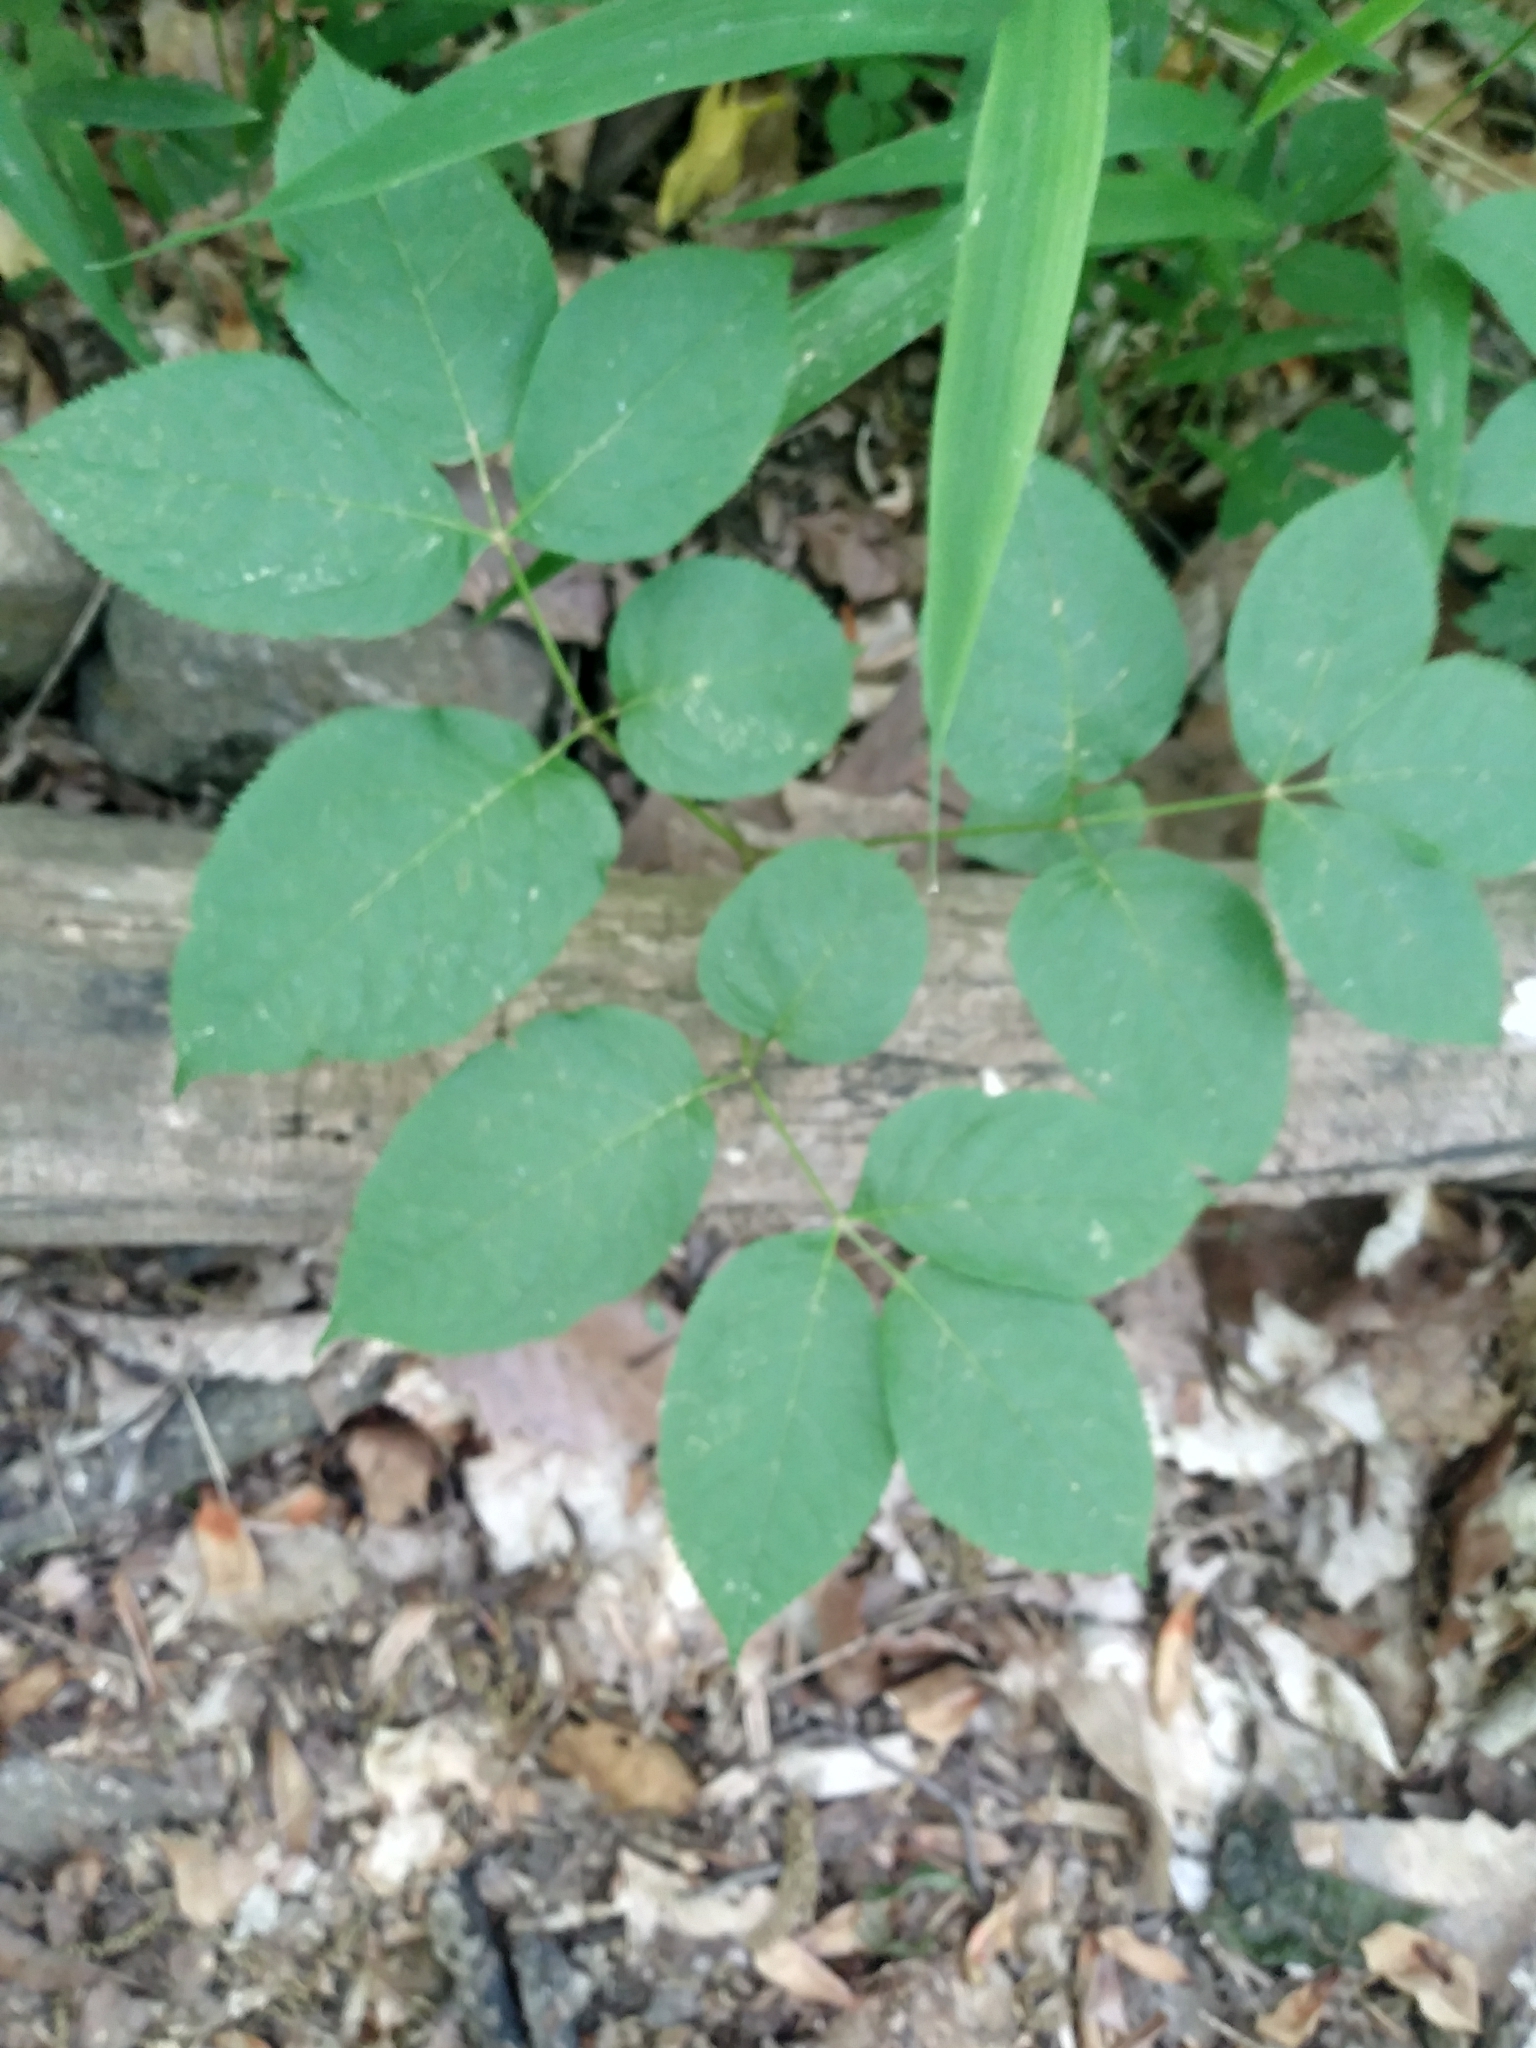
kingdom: Plantae
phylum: Tracheophyta
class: Magnoliopsida
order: Apiales
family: Araliaceae
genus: Aralia
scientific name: Aralia nudicaulis
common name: Wild sarsaparilla
